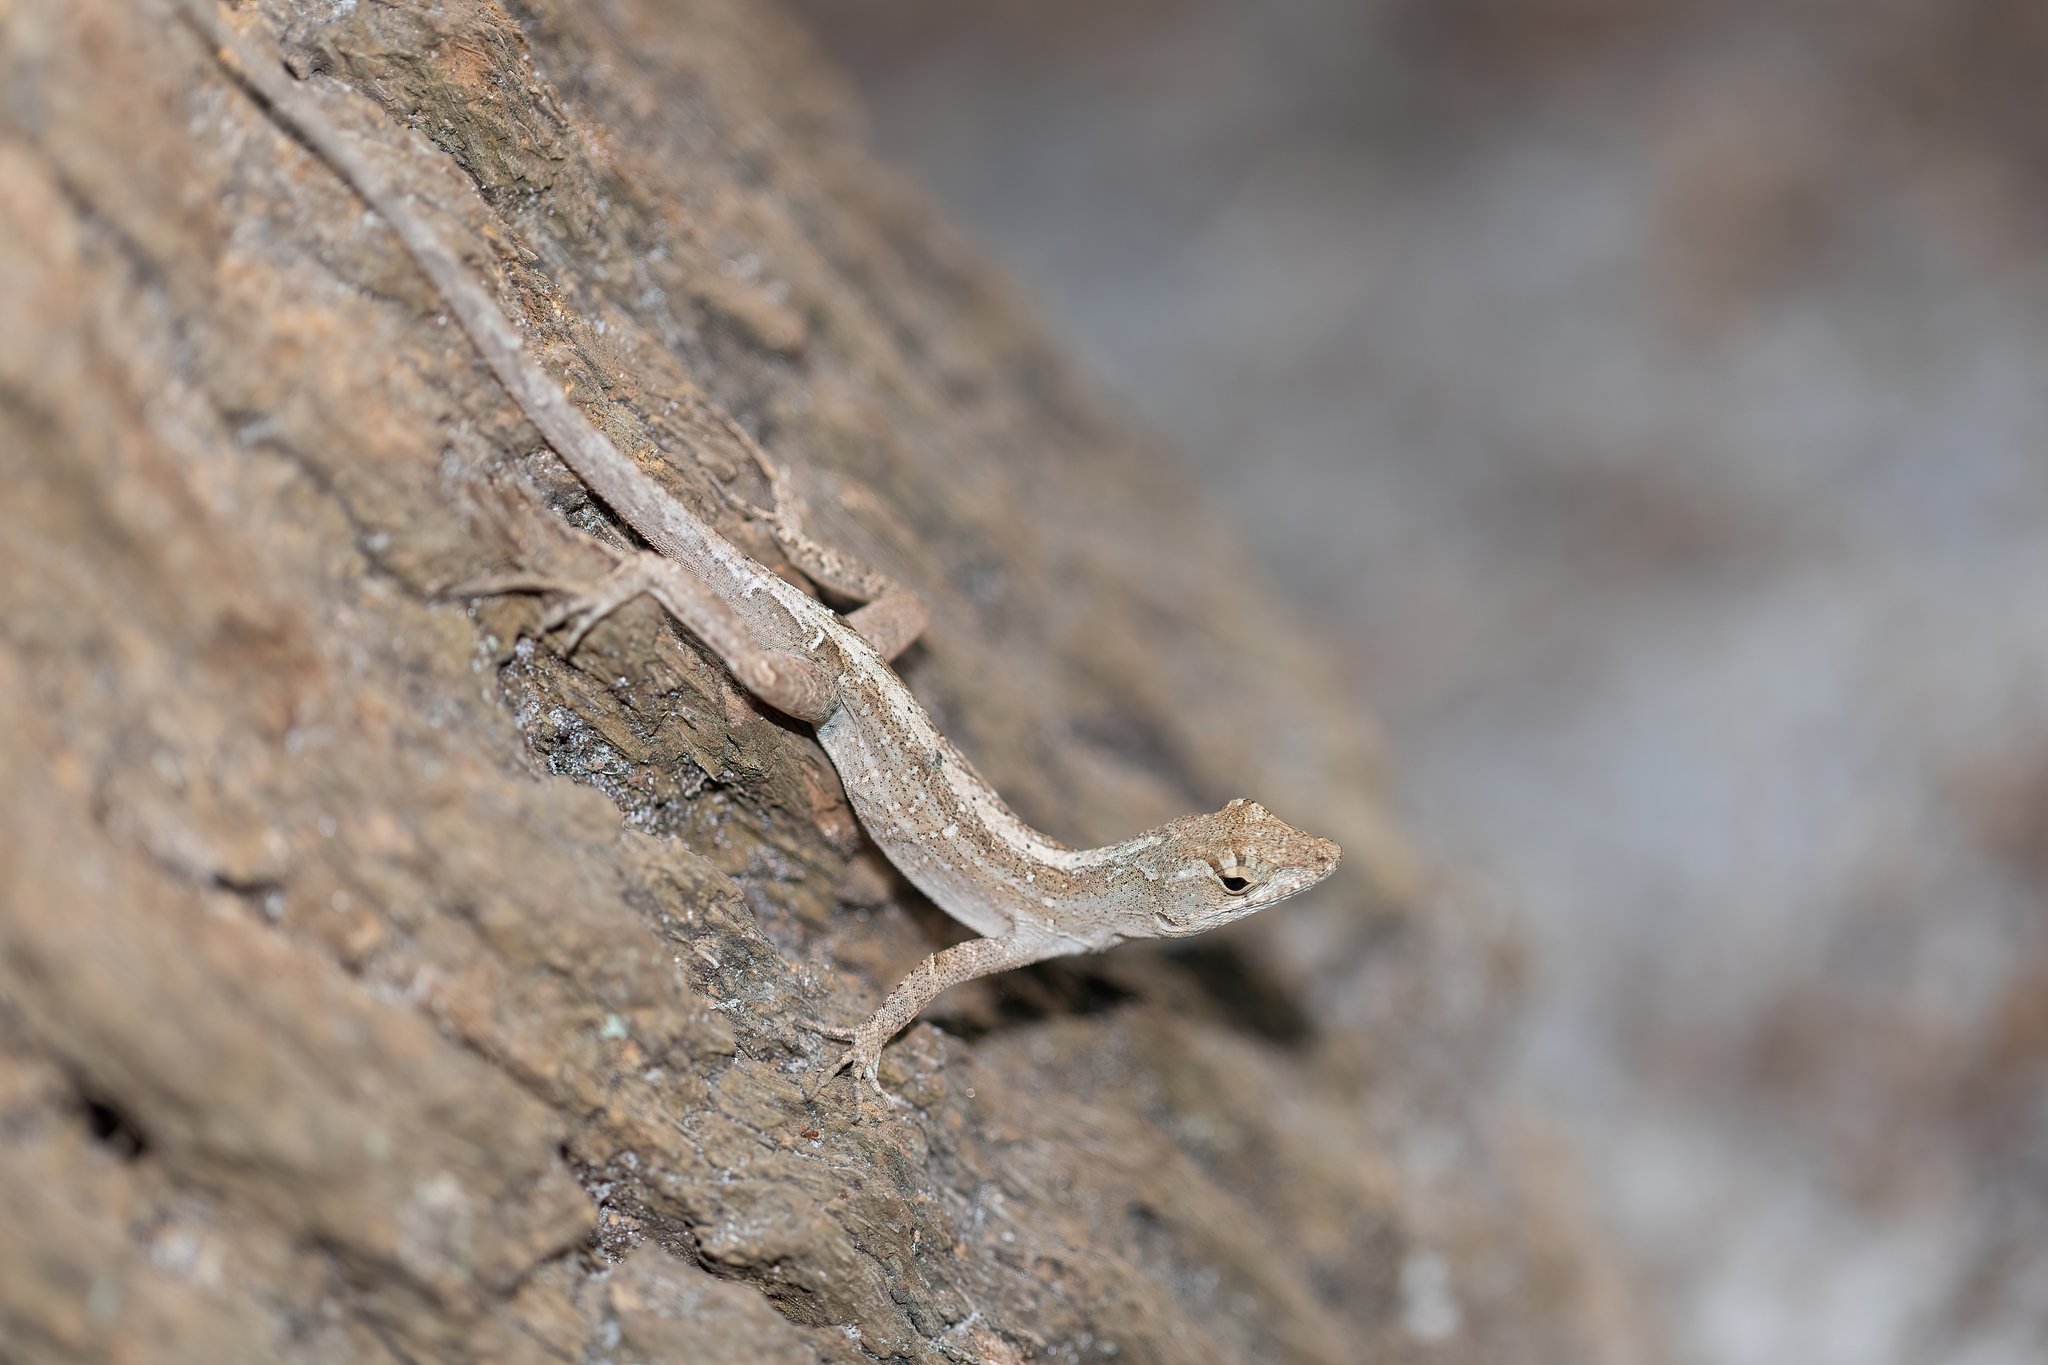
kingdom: Animalia
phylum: Chordata
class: Squamata
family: Dactyloidae
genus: Anolis
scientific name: Anolis sagrei
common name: Brown anole
